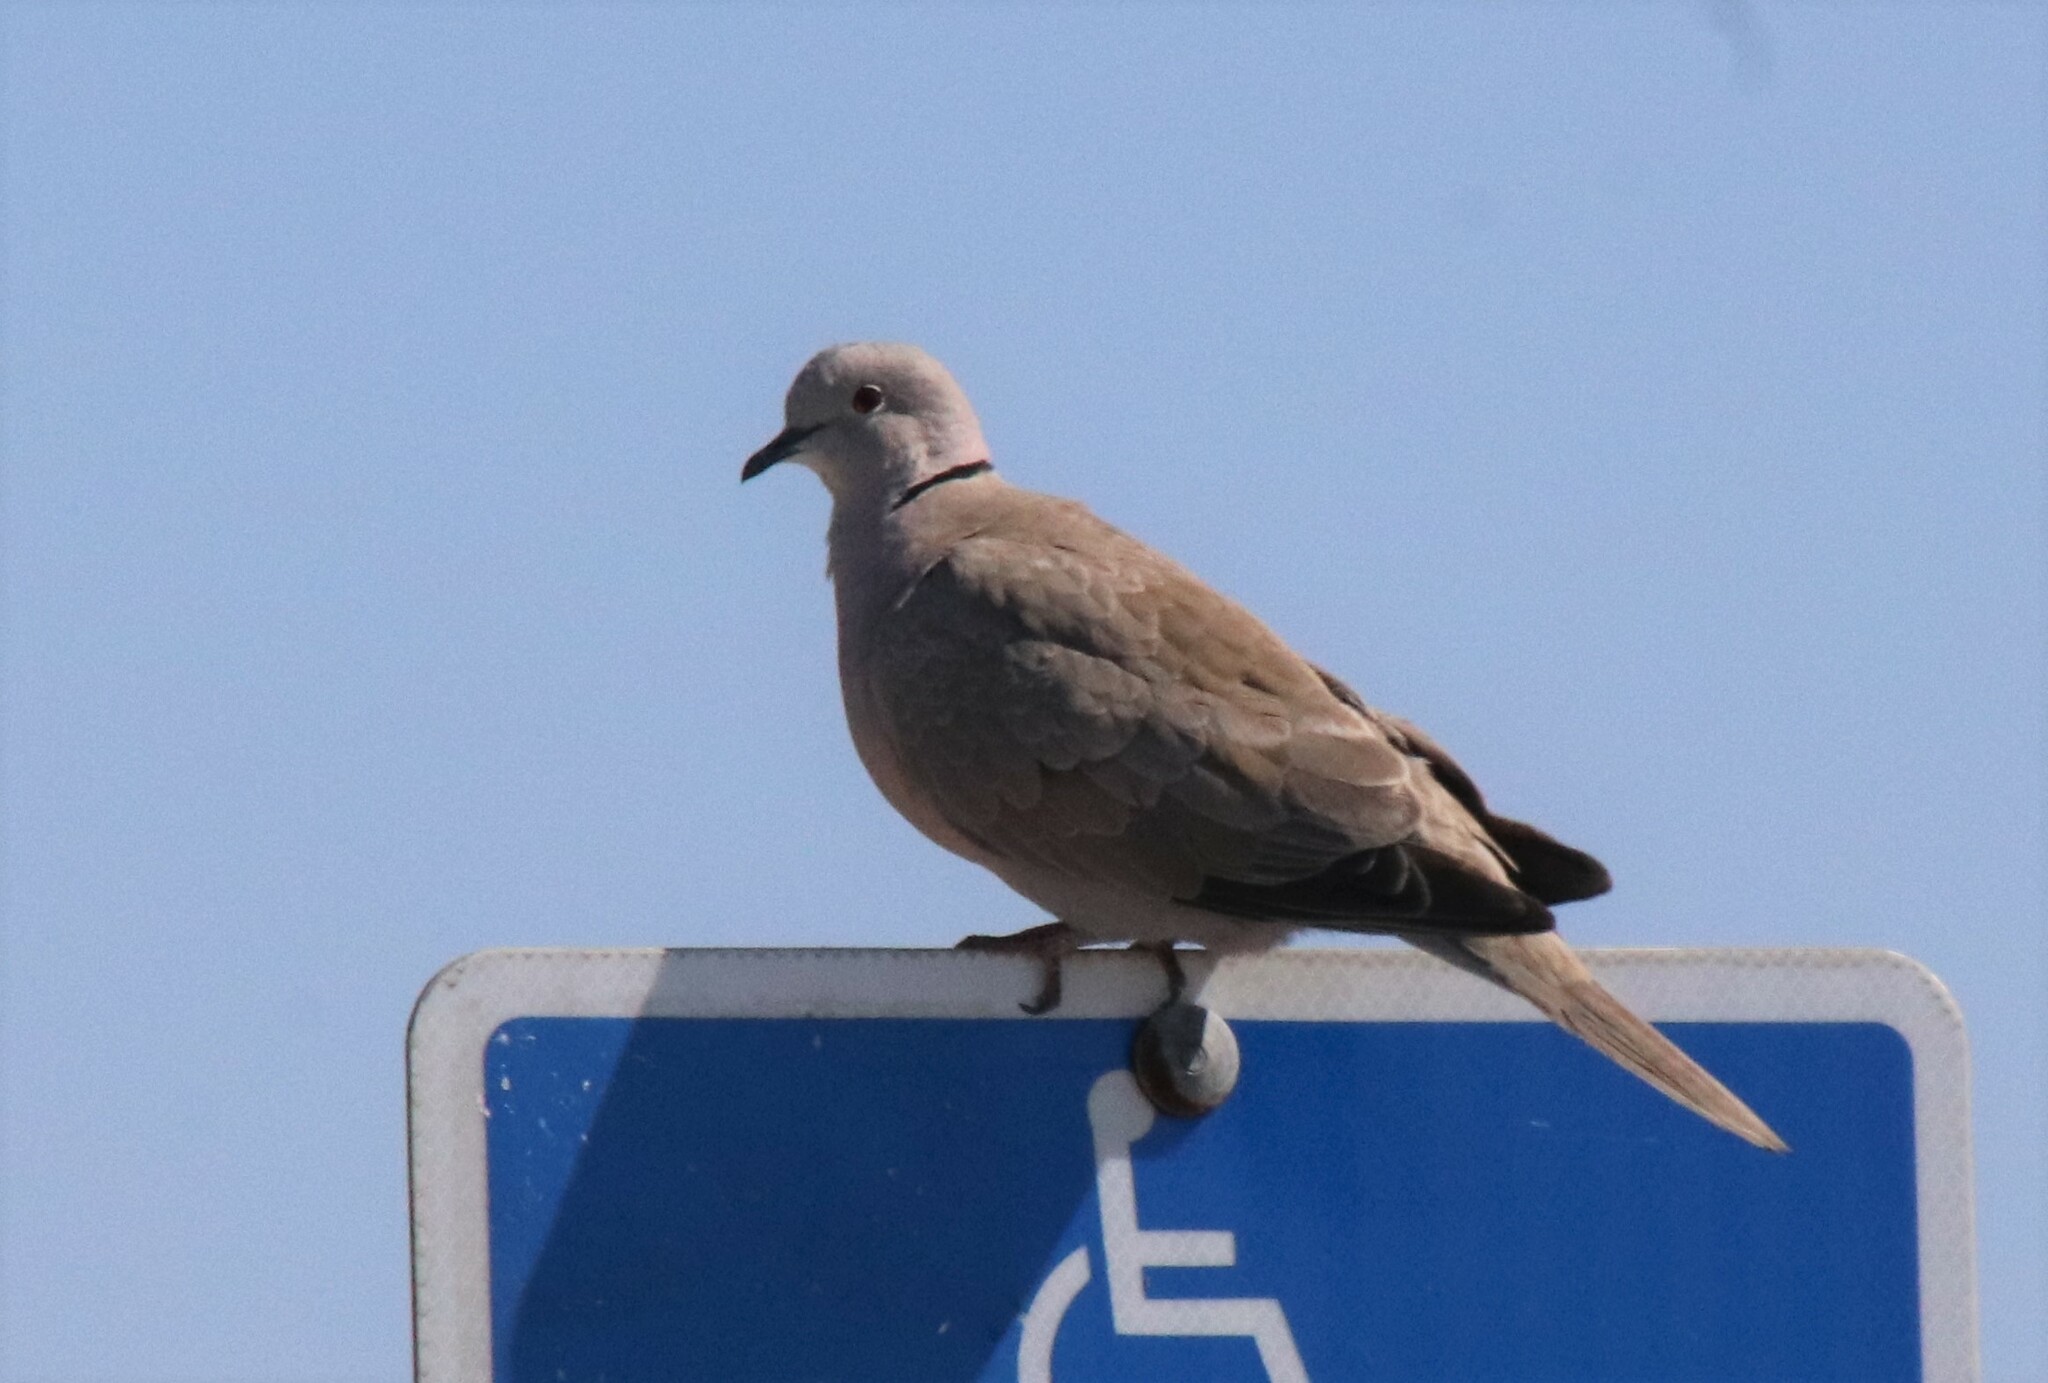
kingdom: Animalia
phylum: Chordata
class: Aves
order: Columbiformes
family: Columbidae
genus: Streptopelia
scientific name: Streptopelia decaocto
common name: Eurasian collared dove
